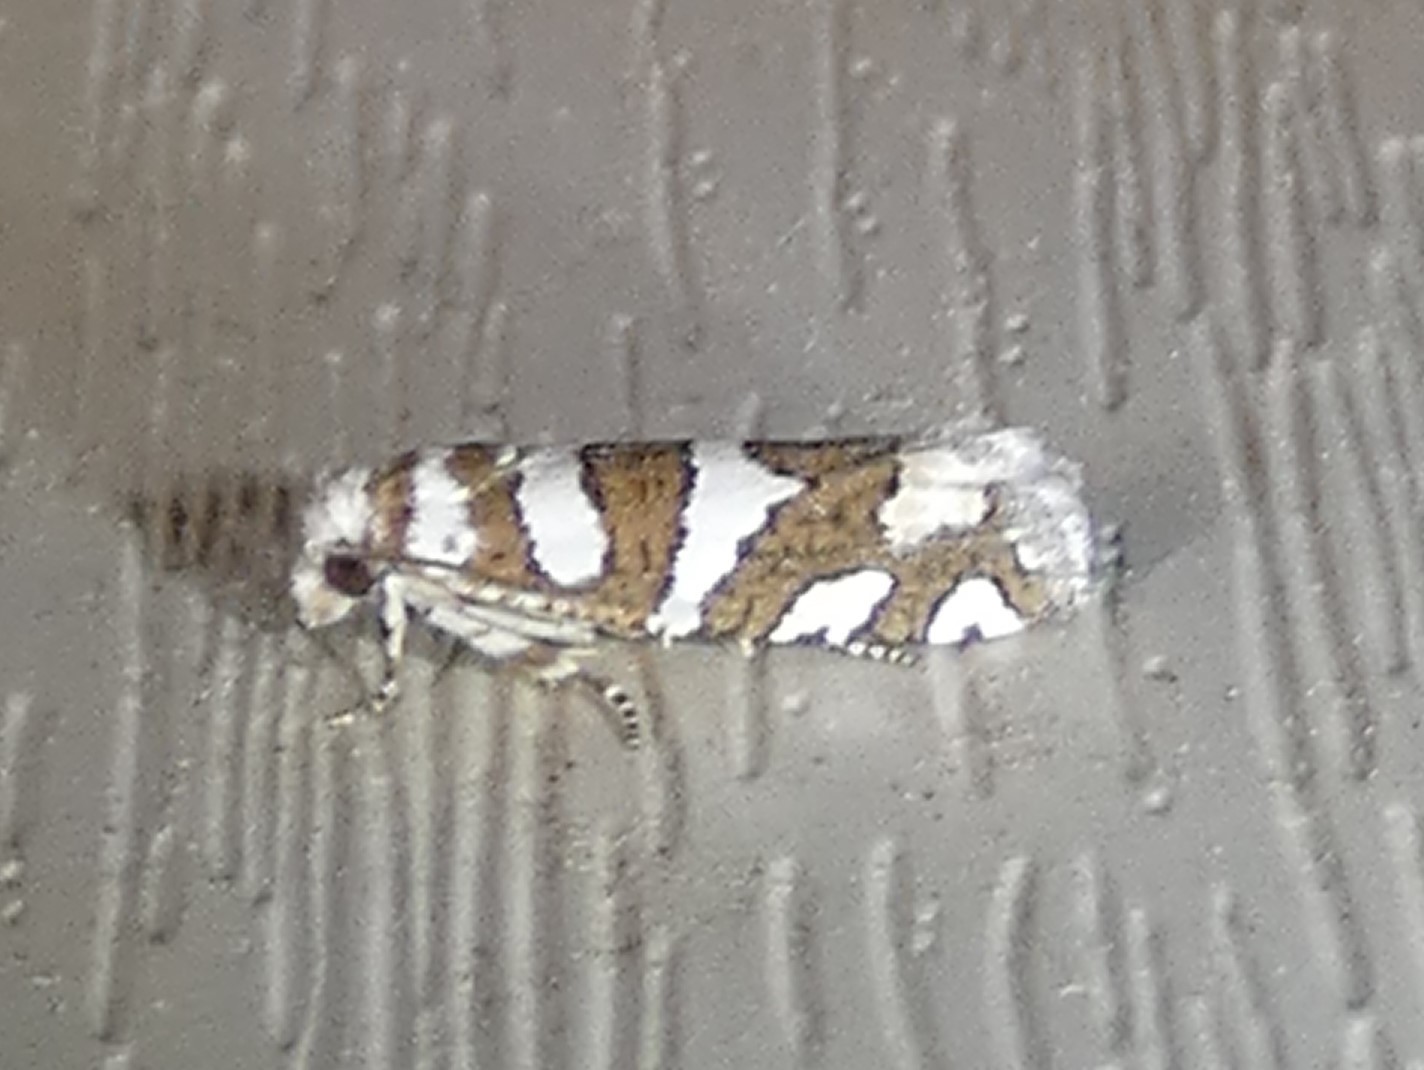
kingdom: Animalia
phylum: Arthropoda
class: Insecta
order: Lepidoptera
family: Tortricidae
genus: Pelochrista
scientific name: Pelochrista robinsonana
